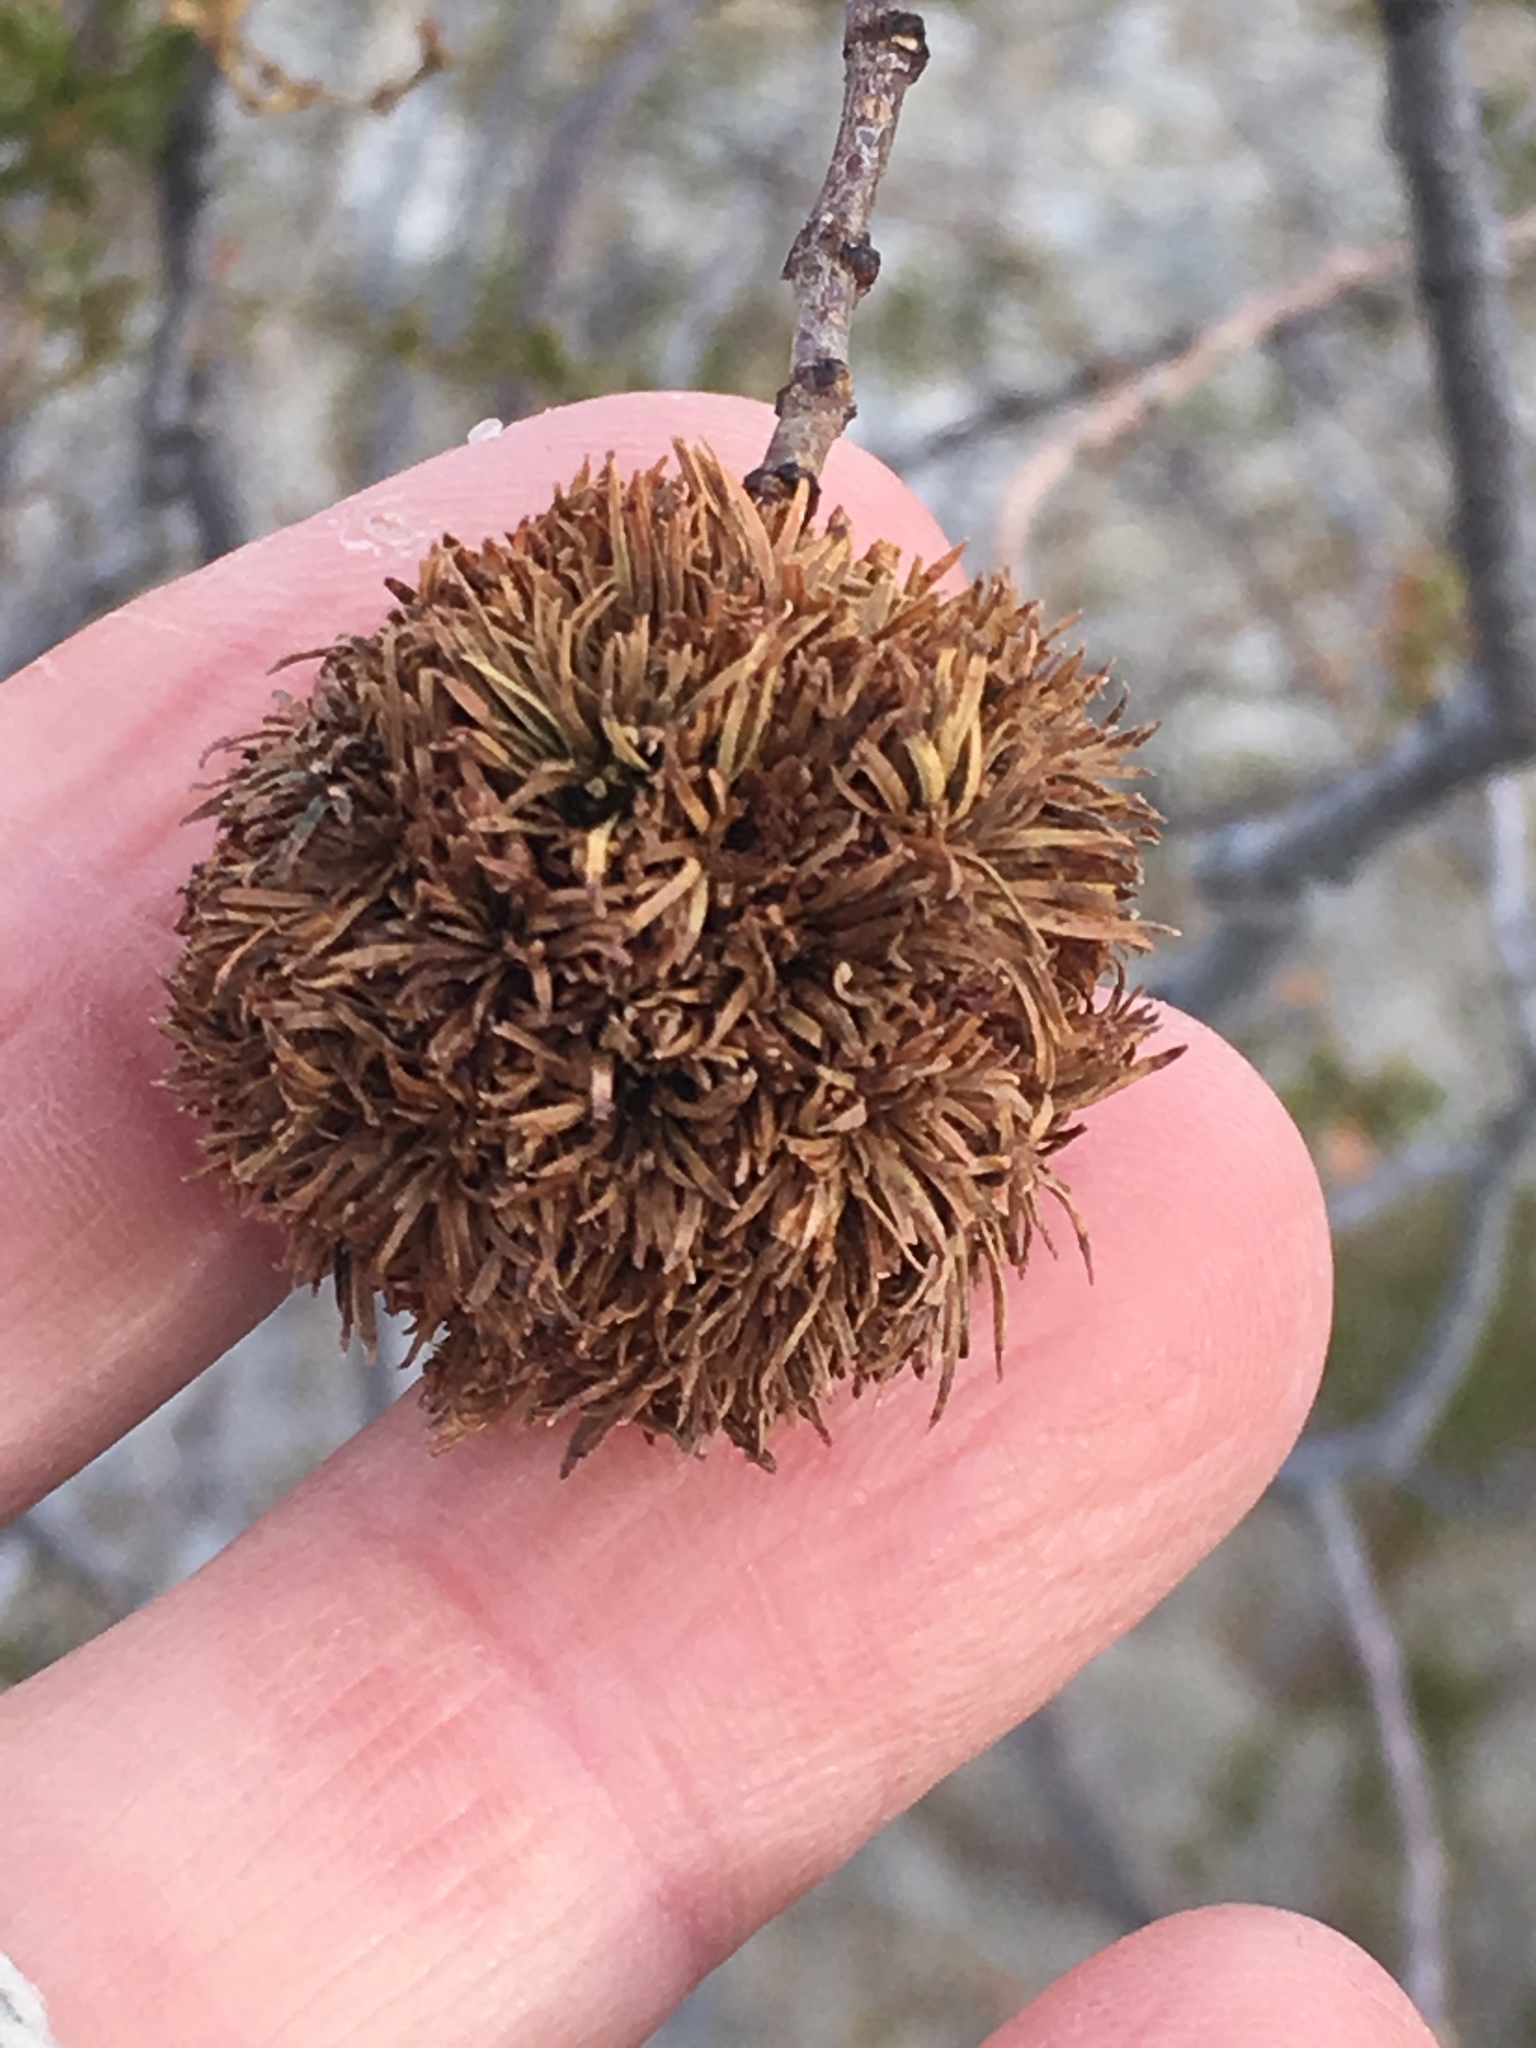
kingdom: Plantae
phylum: Tracheophyta
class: Magnoliopsida
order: Zygophyllales
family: Zygophyllaceae
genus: Larrea
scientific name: Larrea tridentata
